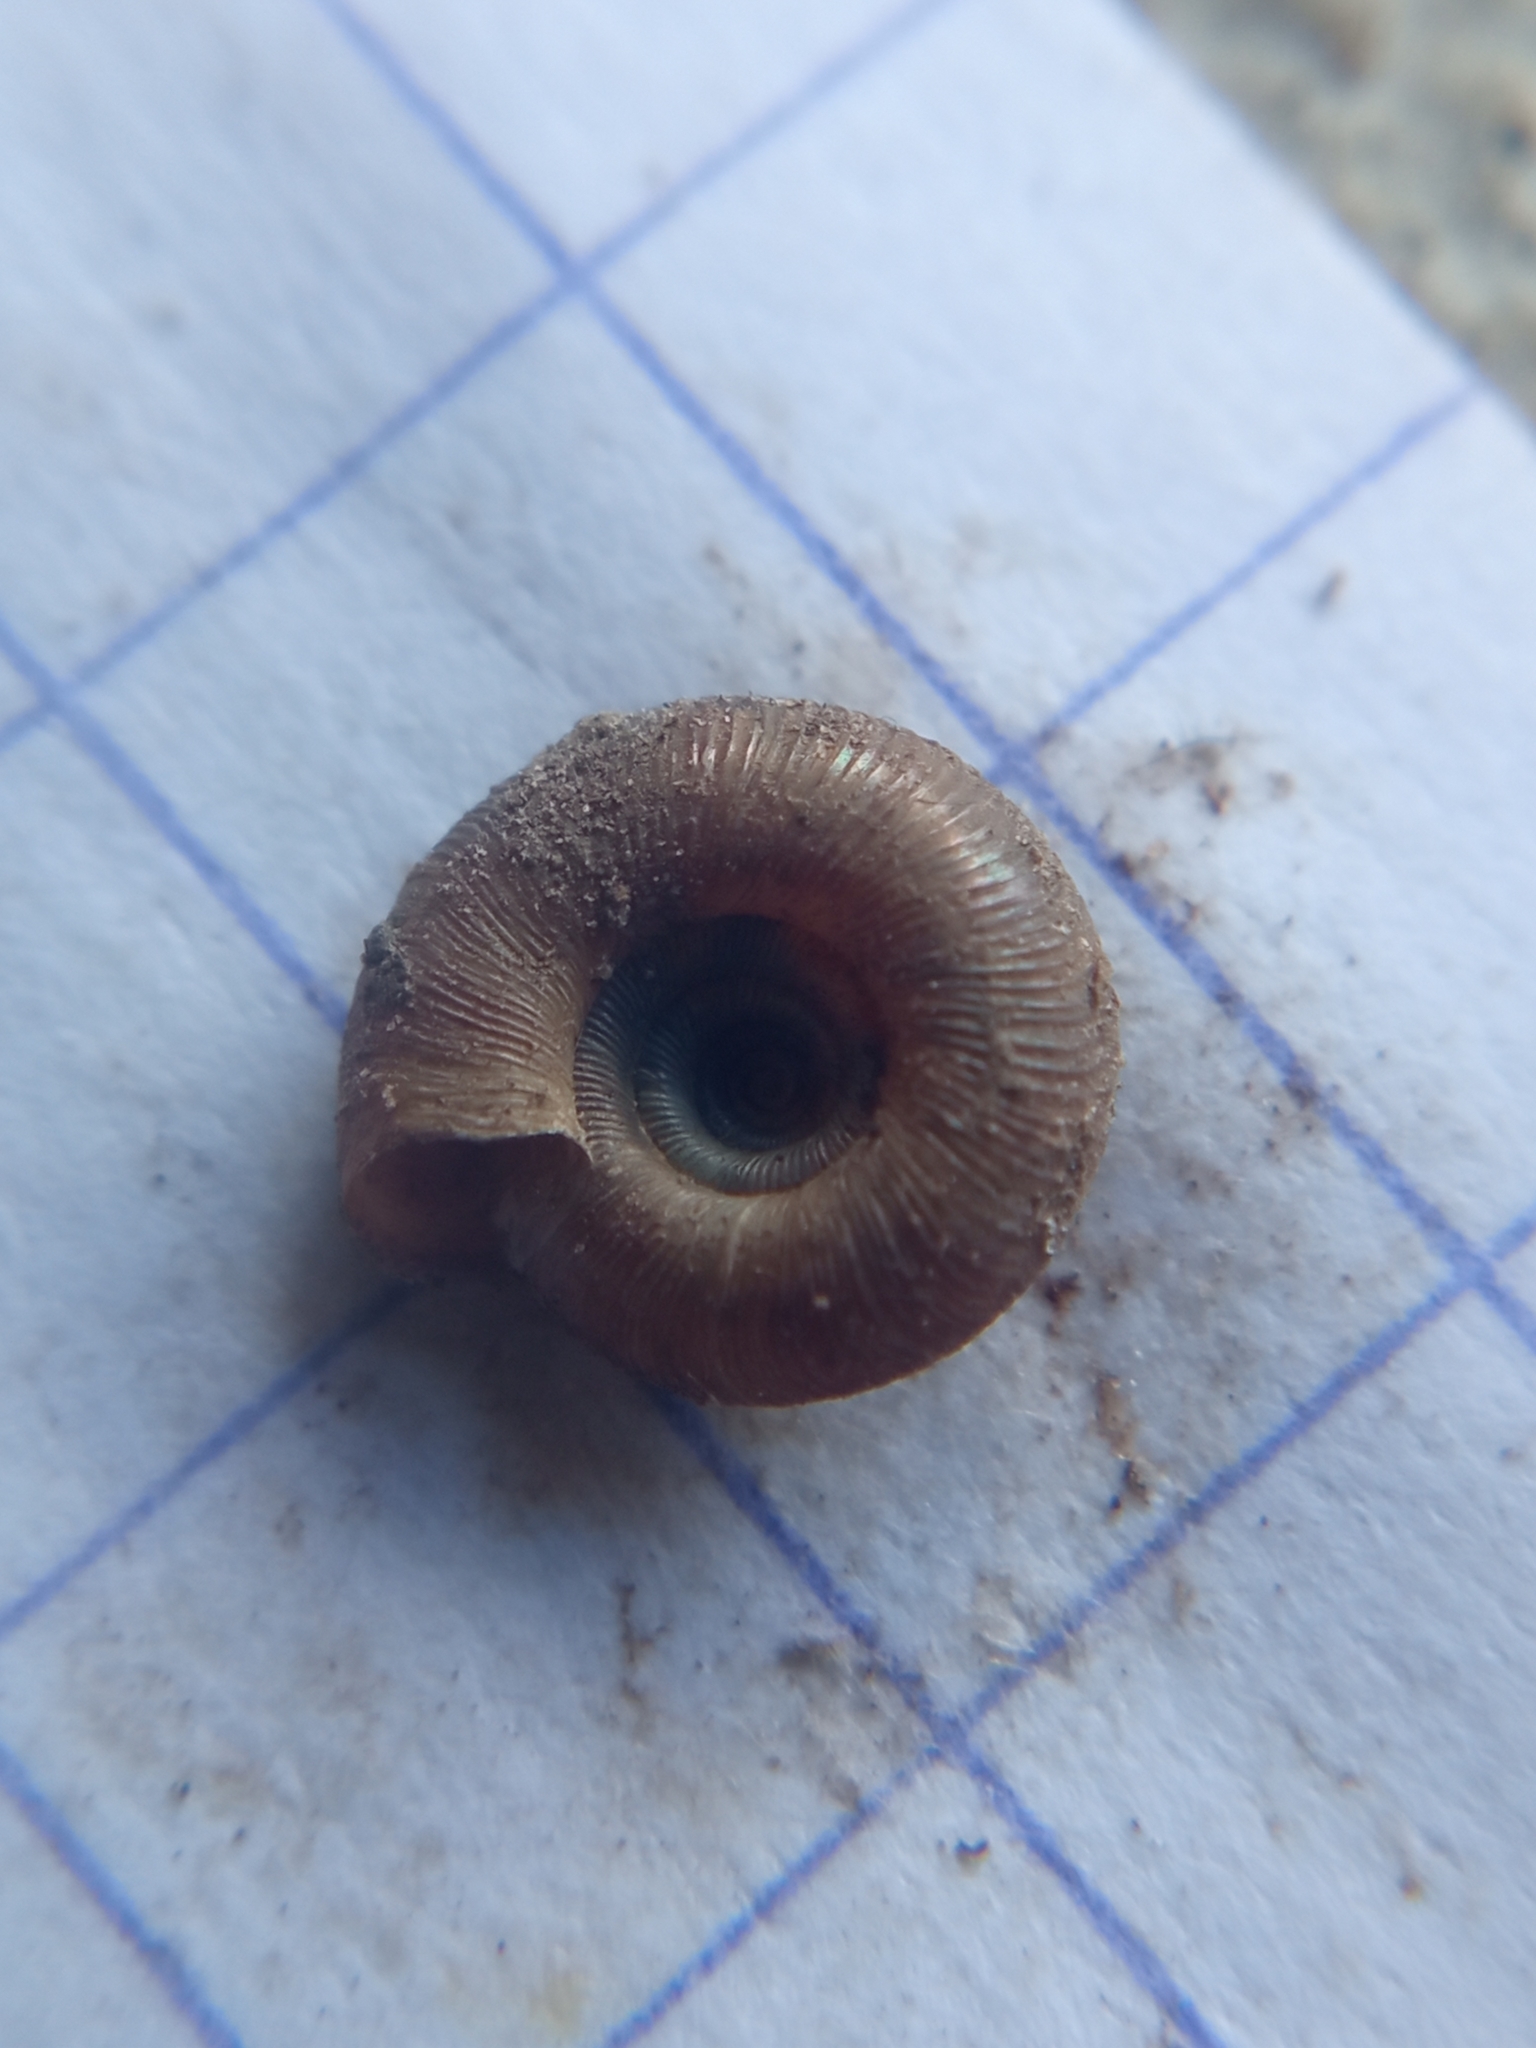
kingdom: Animalia
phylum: Mollusca
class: Gastropoda
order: Stylommatophora
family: Discidae
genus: Discus
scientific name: Discus rotundatus
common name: Rounded snail
